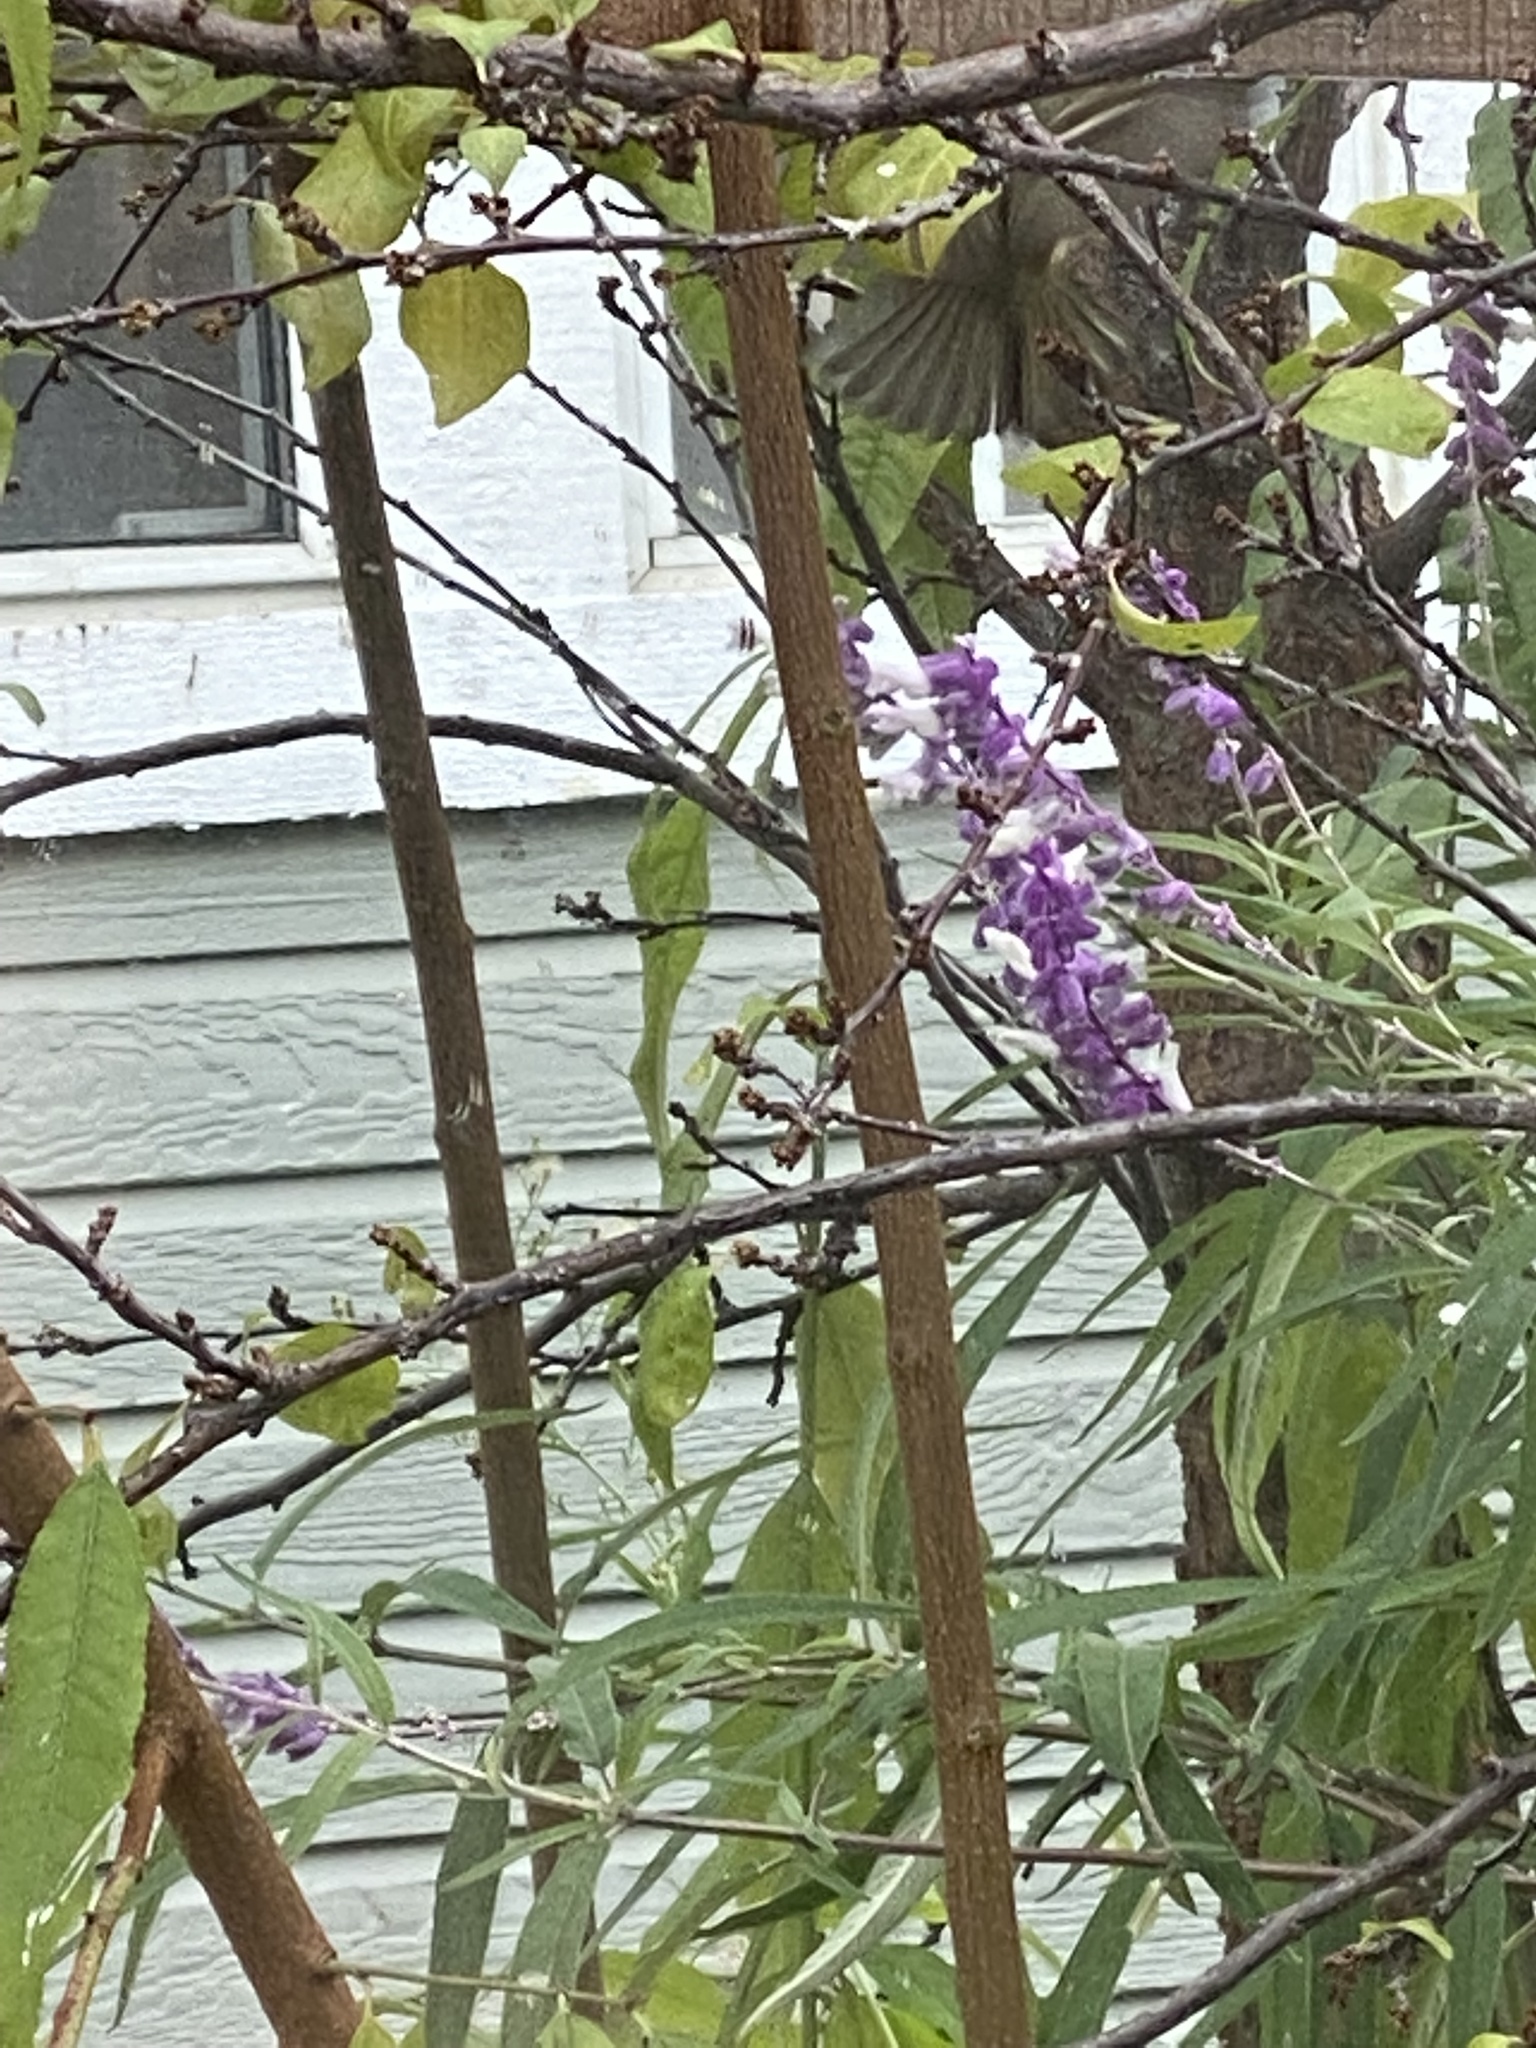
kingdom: Animalia
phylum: Chordata
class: Aves
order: Passeriformes
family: Regulidae
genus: Regulus
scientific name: Regulus calendula
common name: Ruby-crowned kinglet
